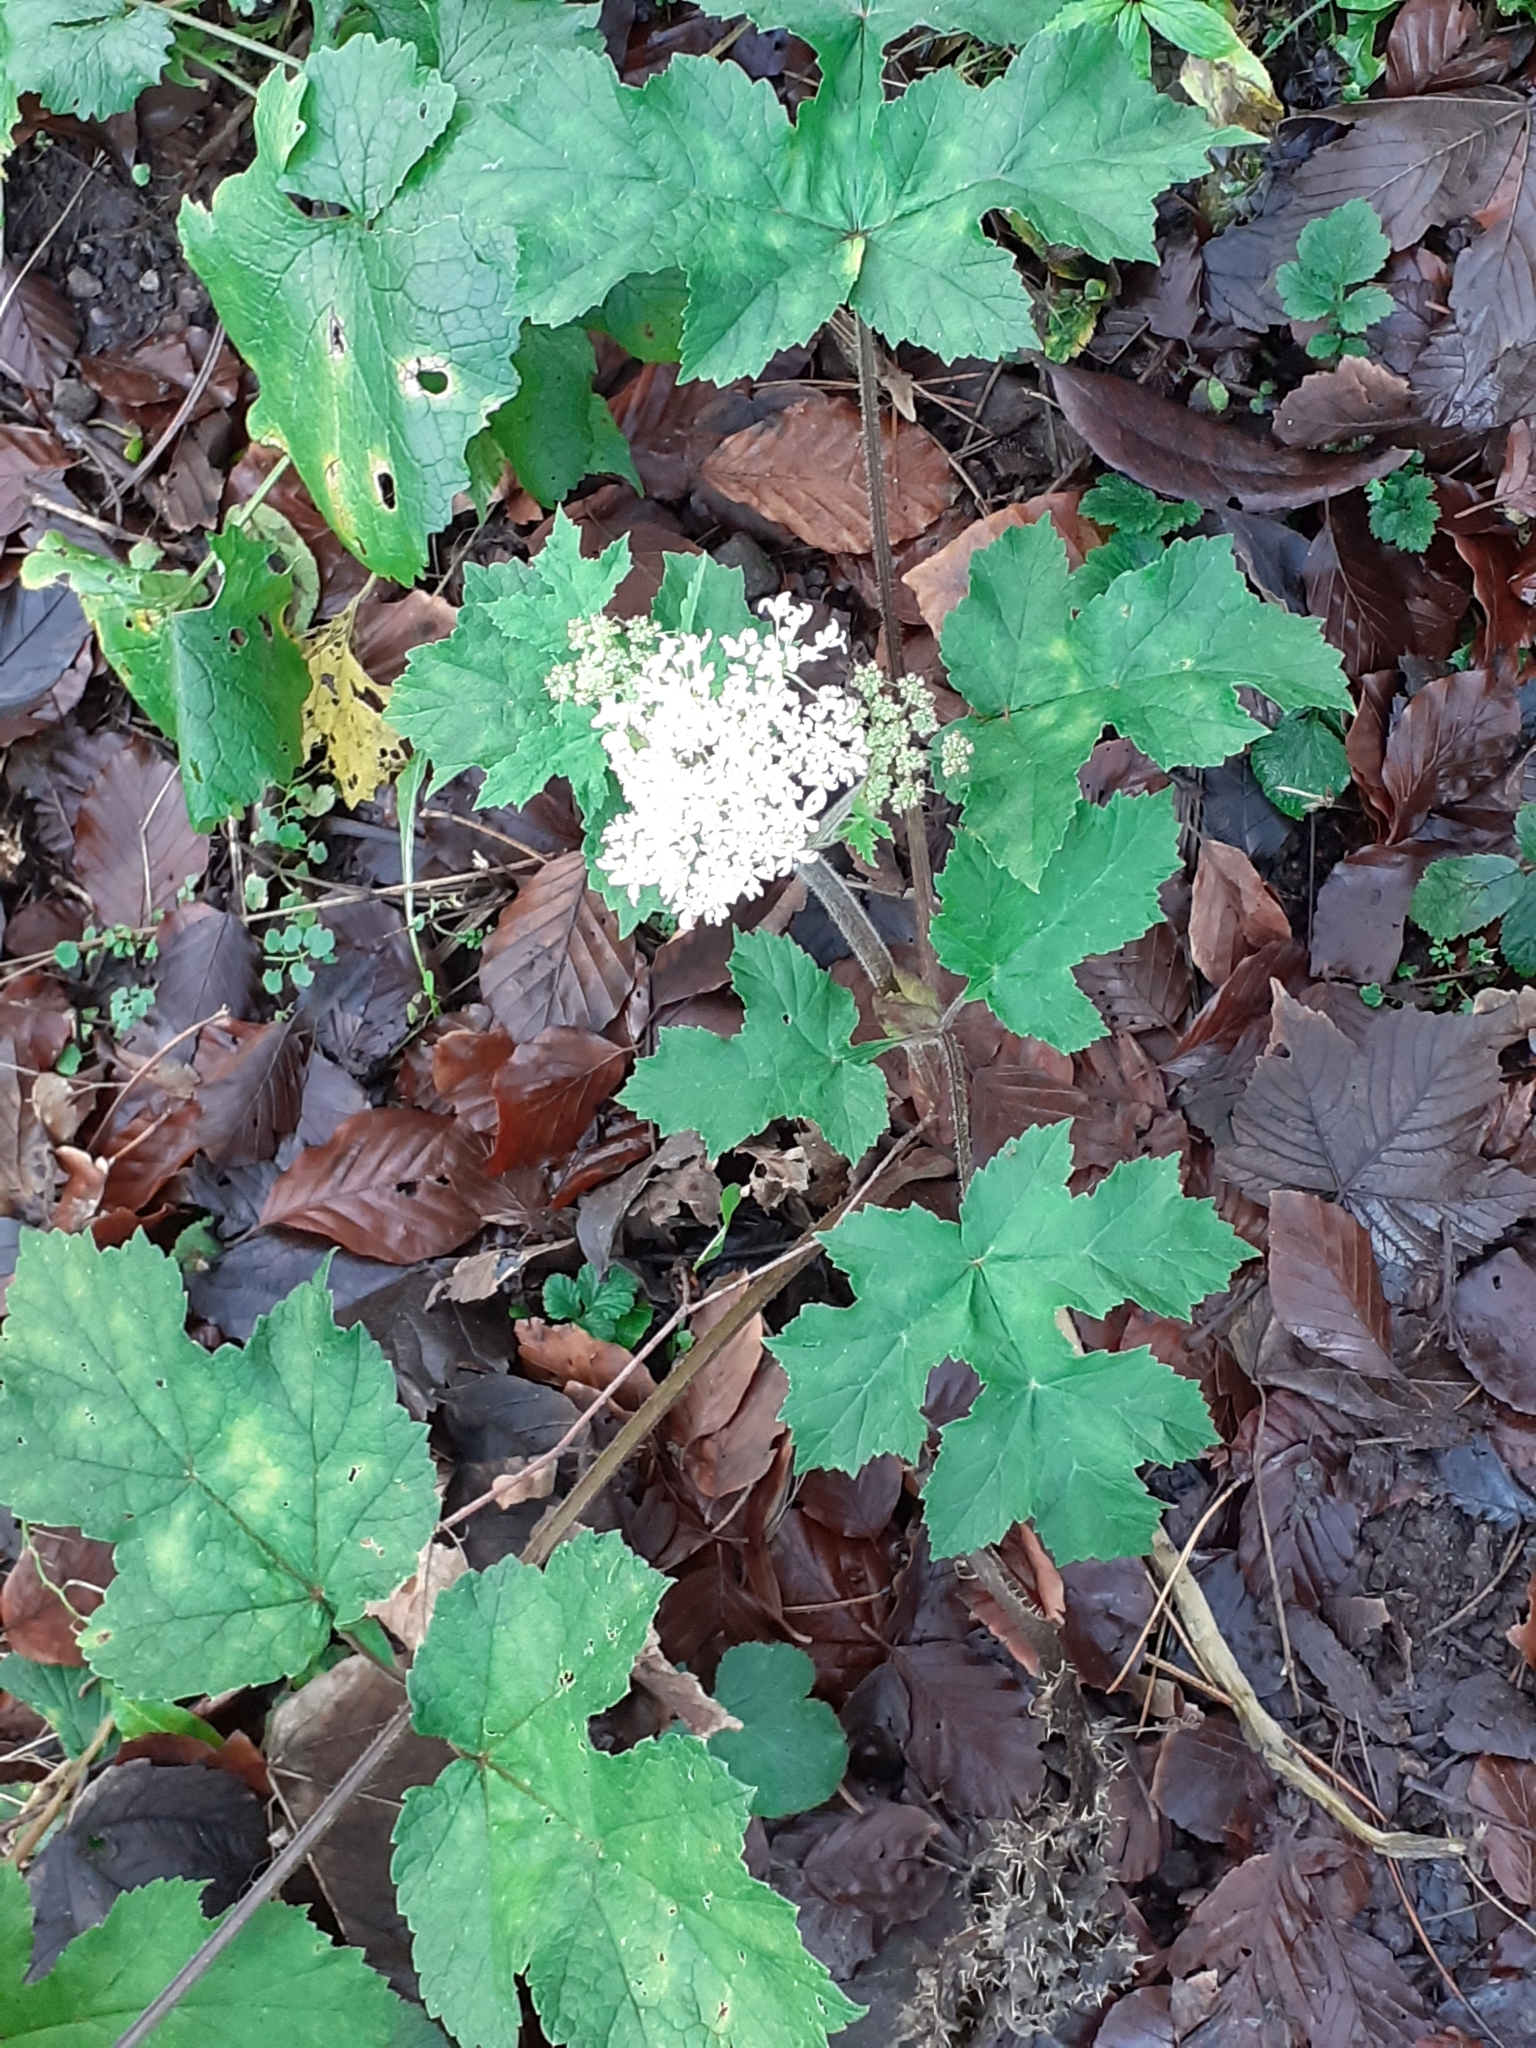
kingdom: Plantae
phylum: Tracheophyta
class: Magnoliopsida
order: Apiales
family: Apiaceae
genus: Heracleum
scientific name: Heracleum sphondylium
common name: Hogweed
